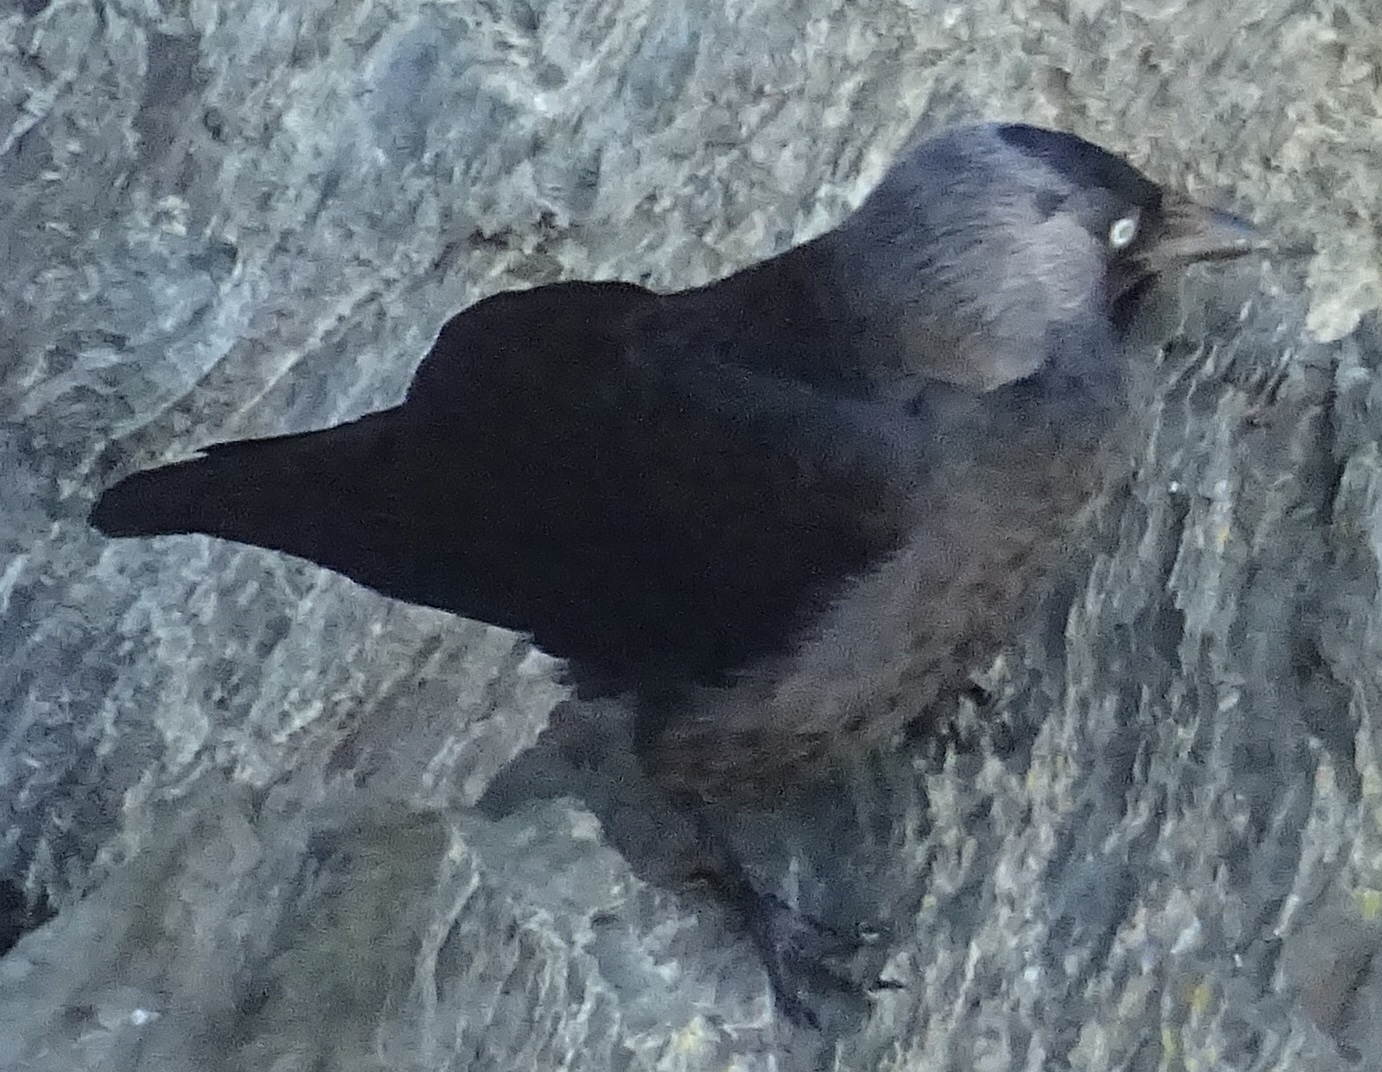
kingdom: Animalia
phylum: Chordata
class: Aves
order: Passeriformes
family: Corvidae
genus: Coloeus
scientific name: Coloeus monedula
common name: Western jackdaw
